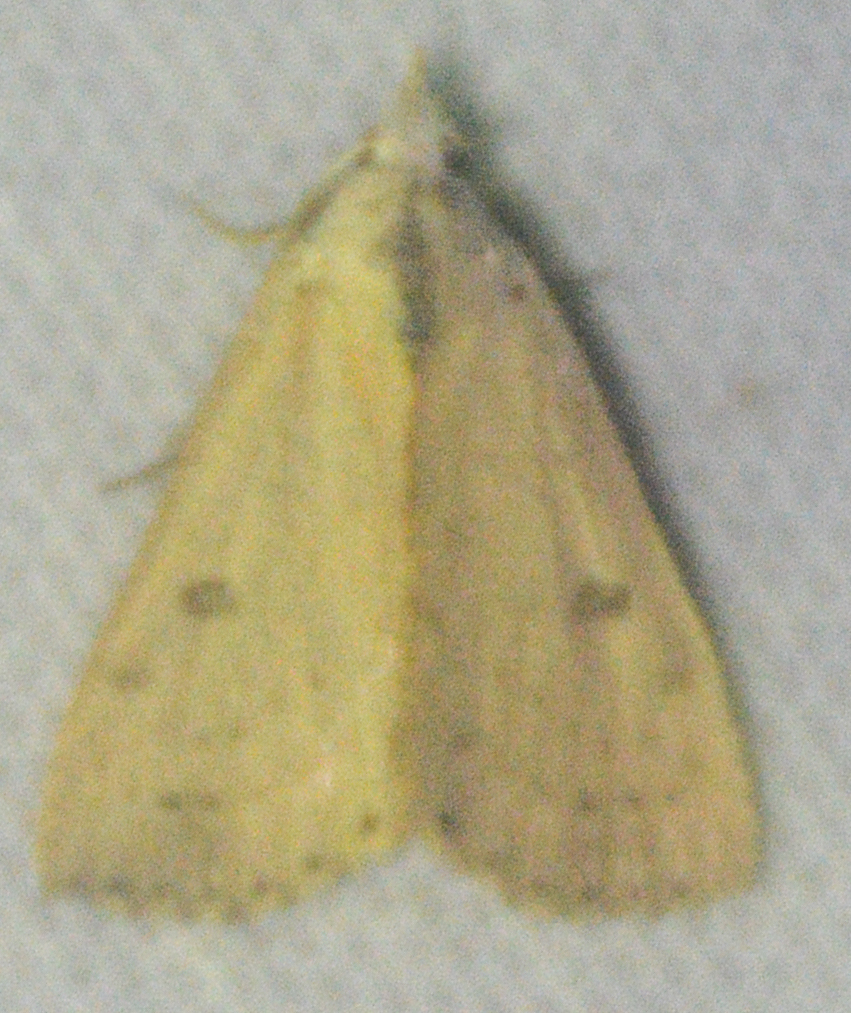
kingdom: Animalia
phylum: Arthropoda
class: Insecta
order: Lepidoptera
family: Erebidae
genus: Scolecocampa
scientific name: Scolecocampa liburna
